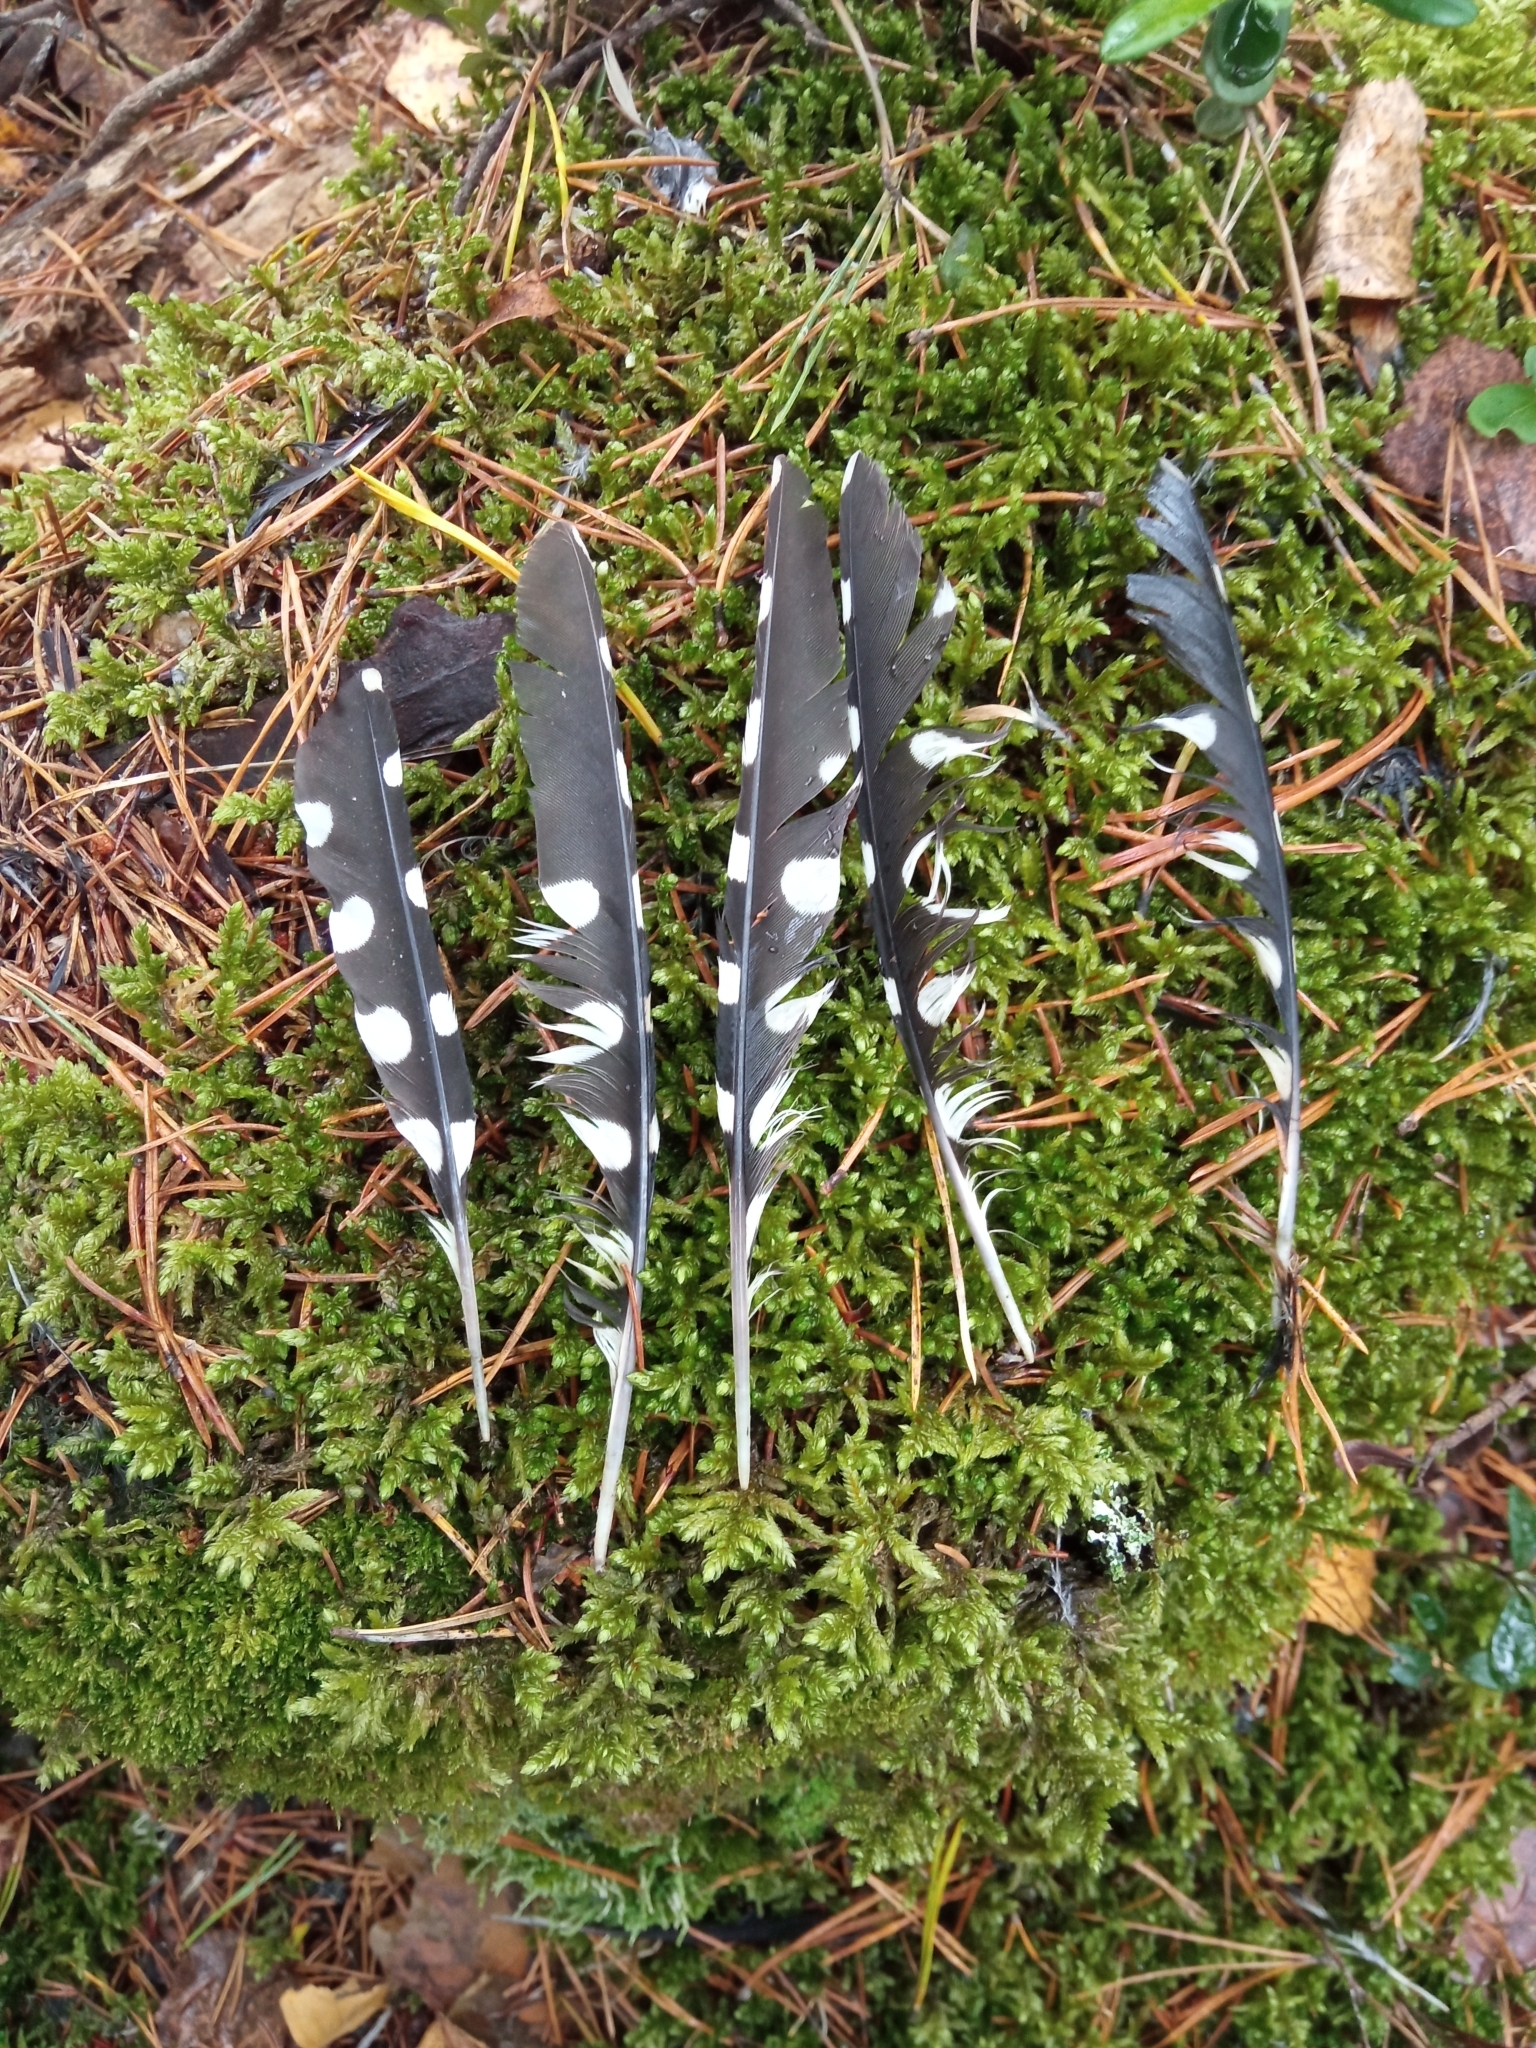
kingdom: Animalia
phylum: Chordata
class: Aves
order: Piciformes
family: Picidae
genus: Dendrocopos
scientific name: Dendrocopos major
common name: Great spotted woodpecker
